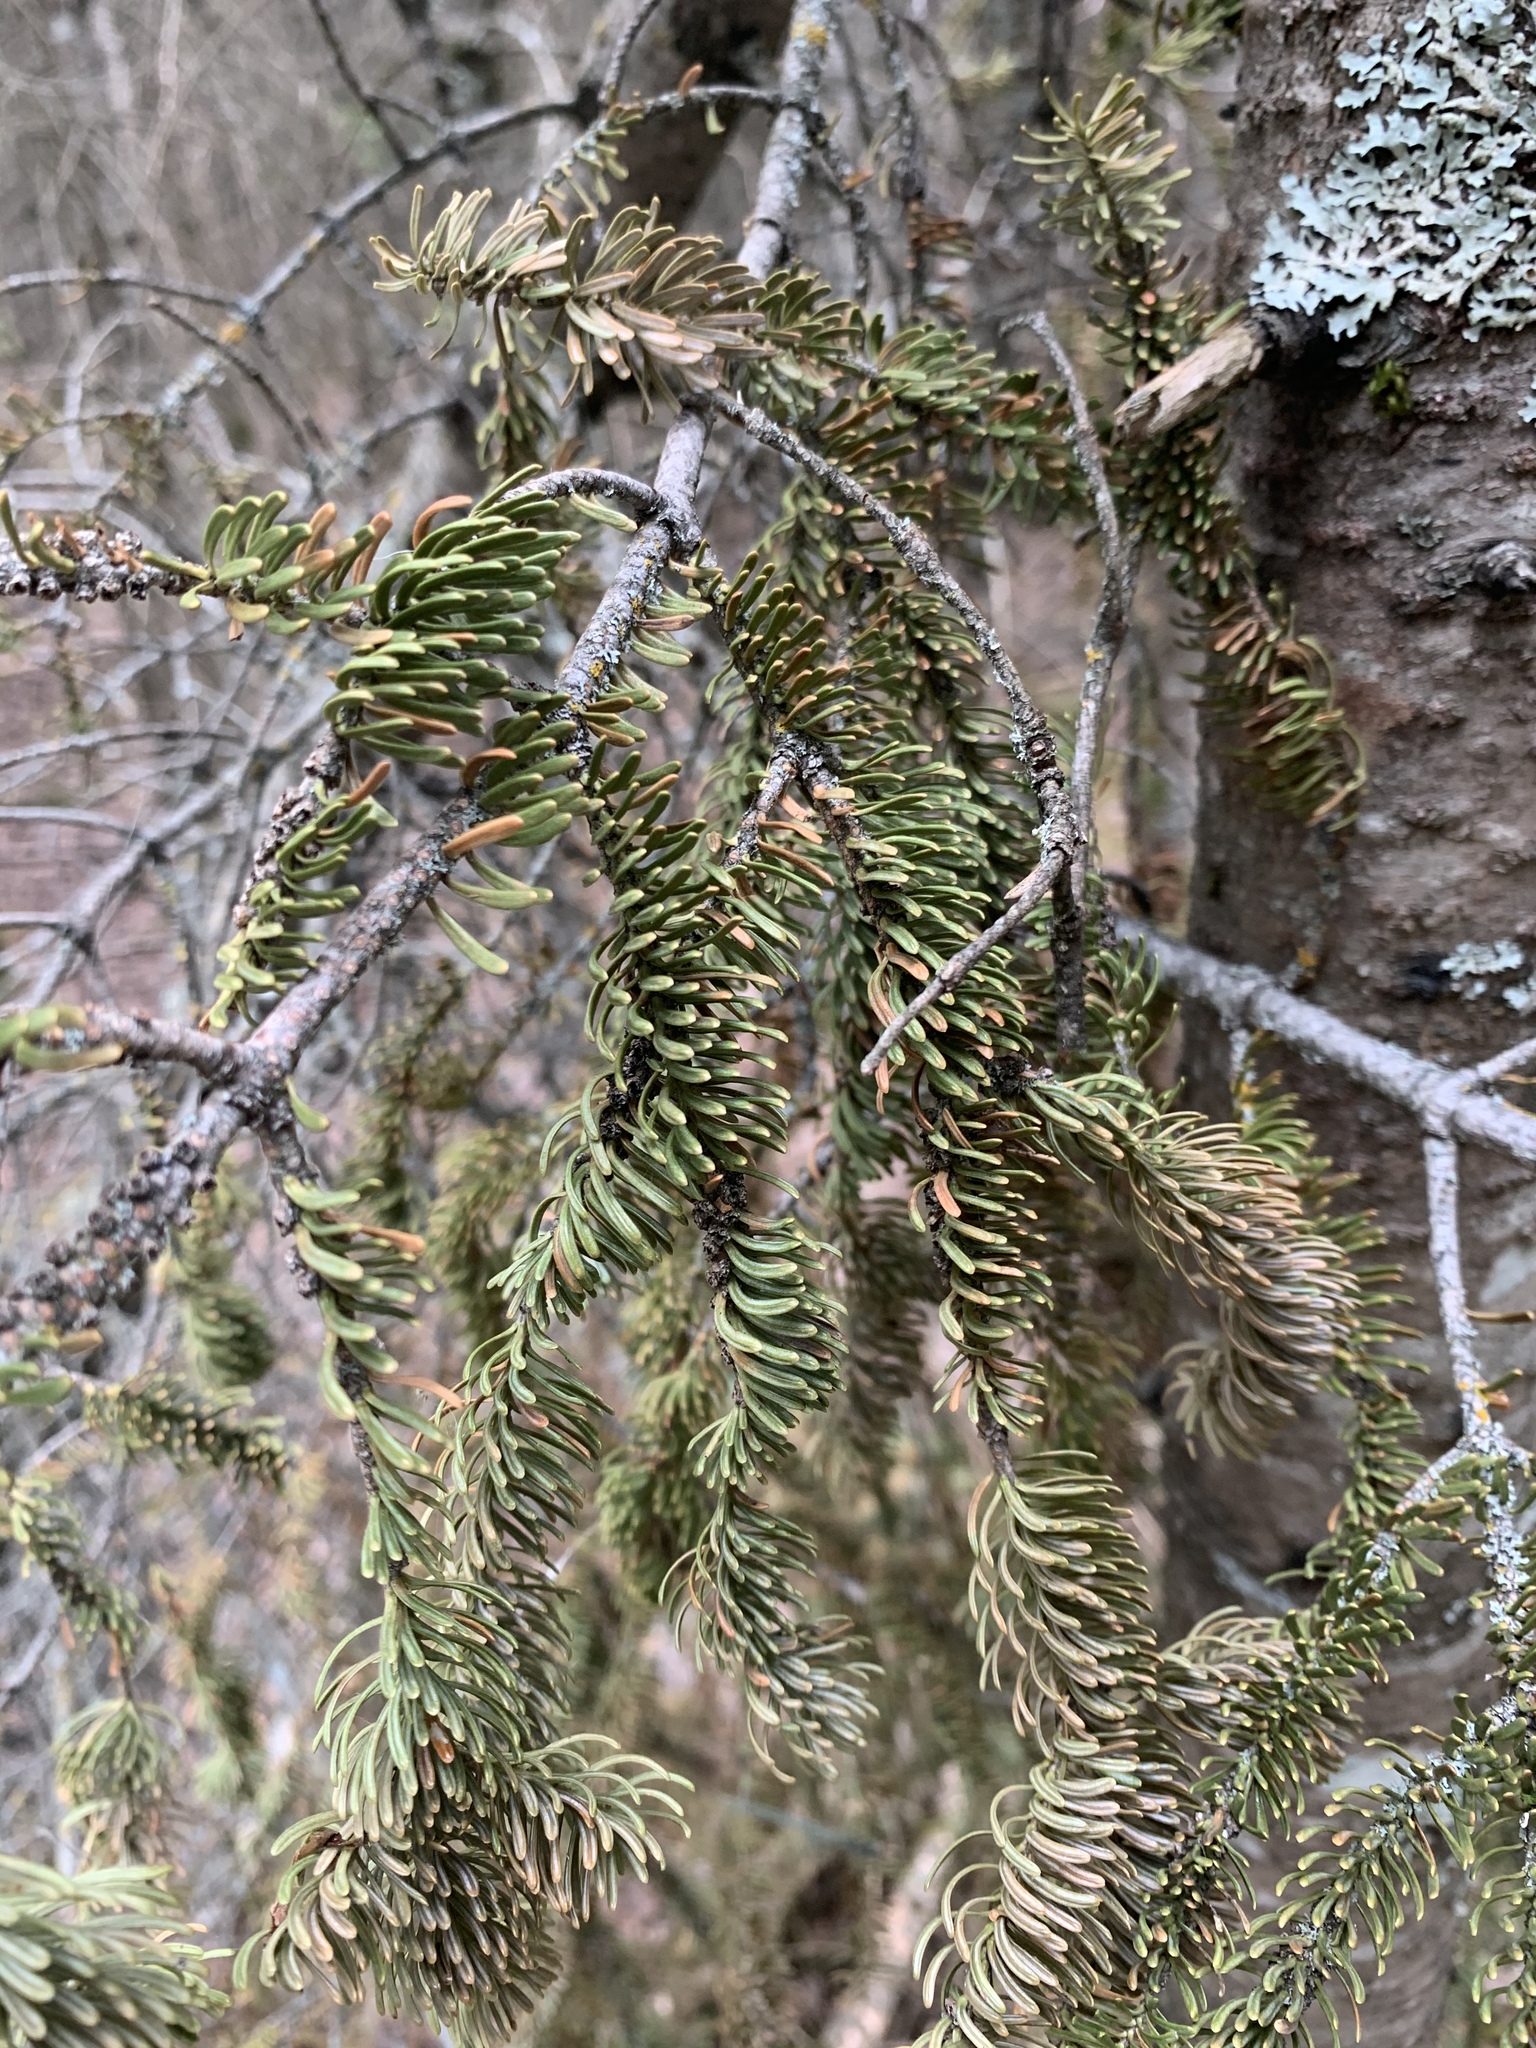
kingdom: Plantae
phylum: Tracheophyta
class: Pinopsida
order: Pinales
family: Pinaceae
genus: Picea
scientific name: Picea mariana
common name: Black spruce
